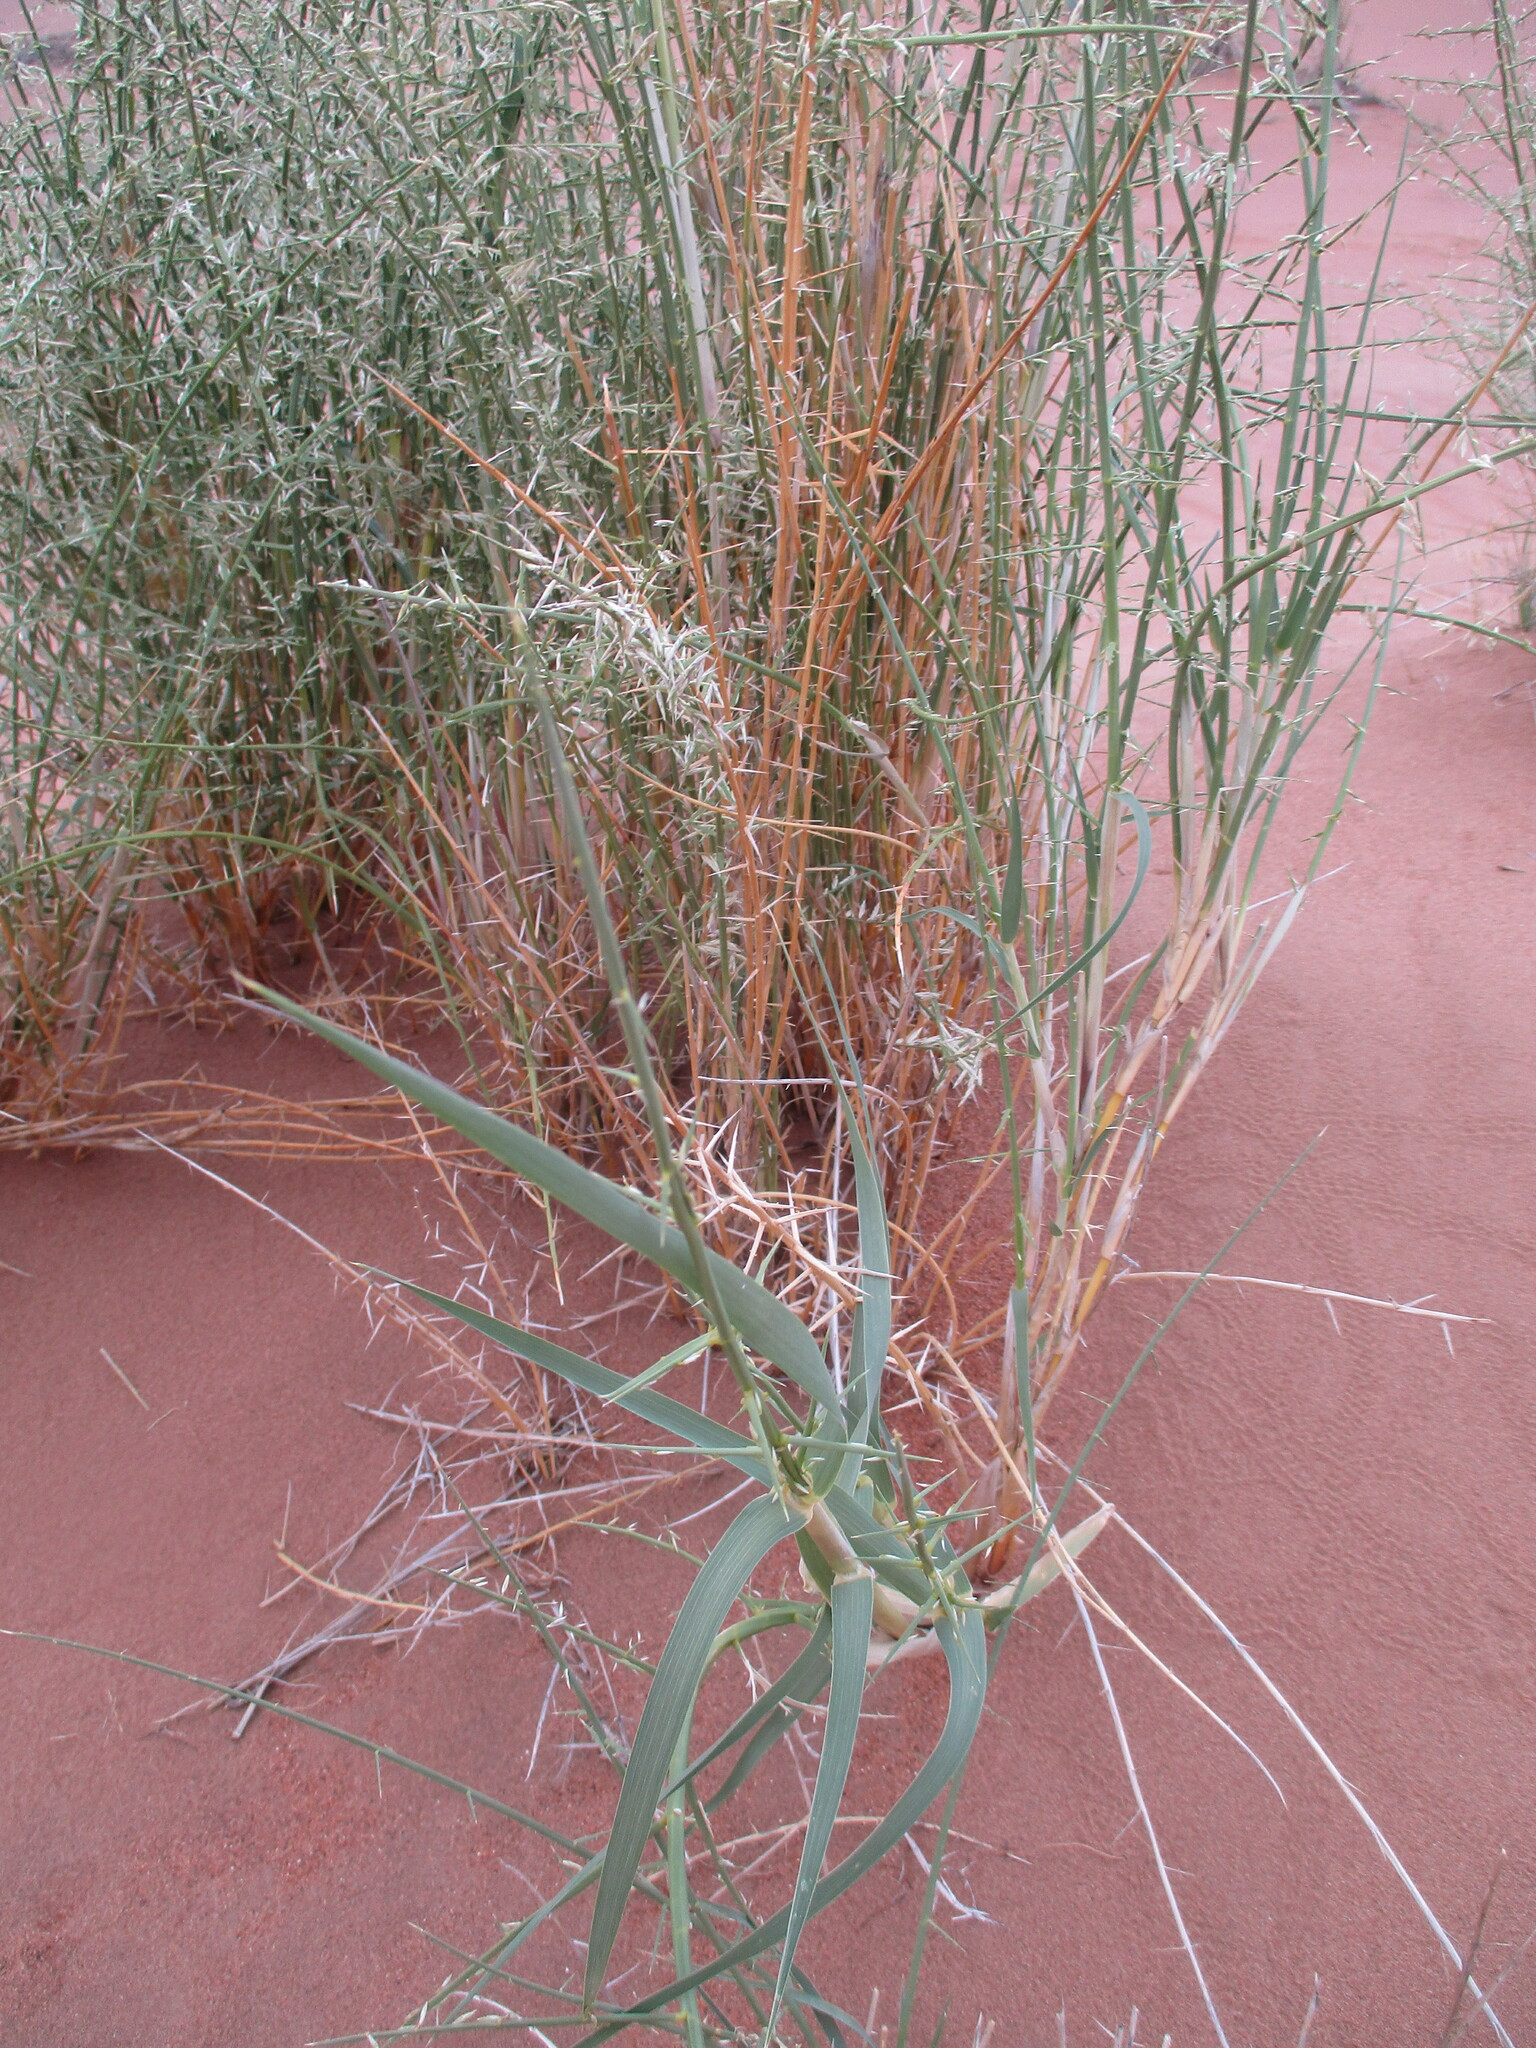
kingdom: Plantae
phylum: Tracheophyta
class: Liliopsida
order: Poales
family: Poaceae
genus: Cladoraphis
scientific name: Cladoraphis spinosa
